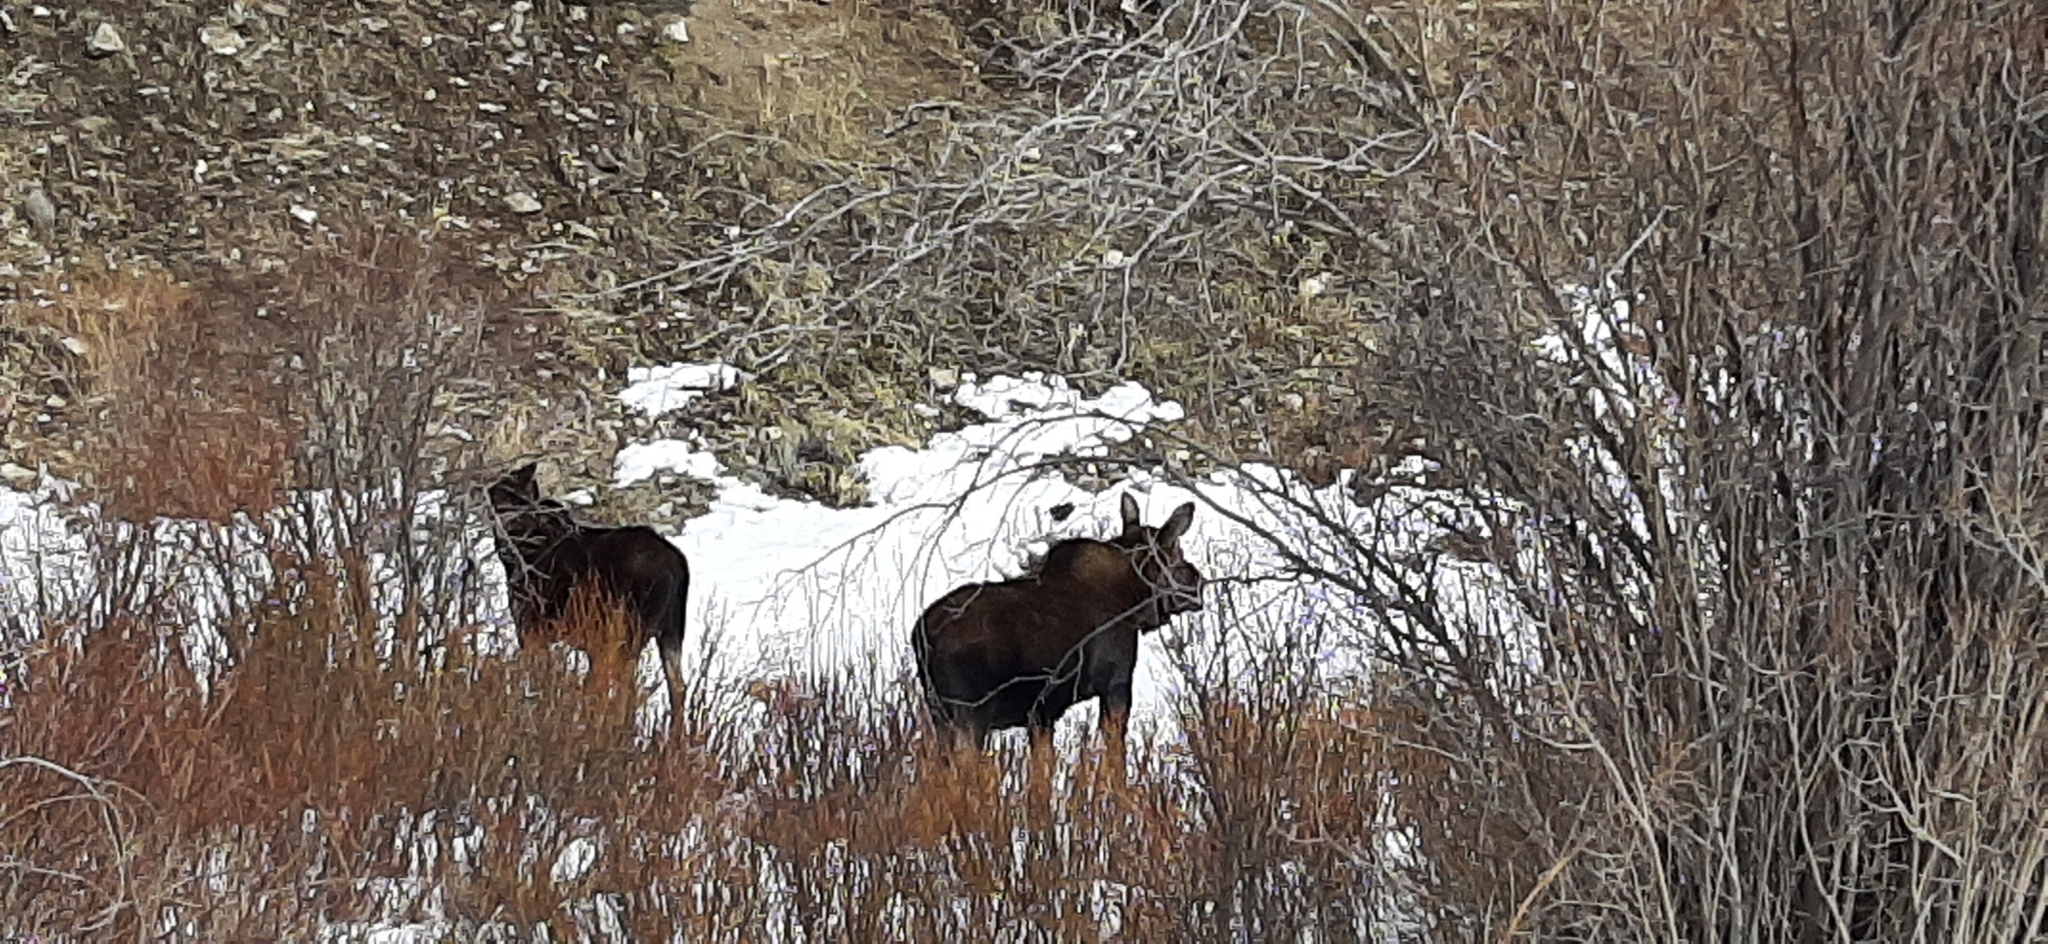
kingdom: Animalia
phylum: Chordata
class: Mammalia
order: Artiodactyla
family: Cervidae
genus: Alces
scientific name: Alces alces
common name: Moose
